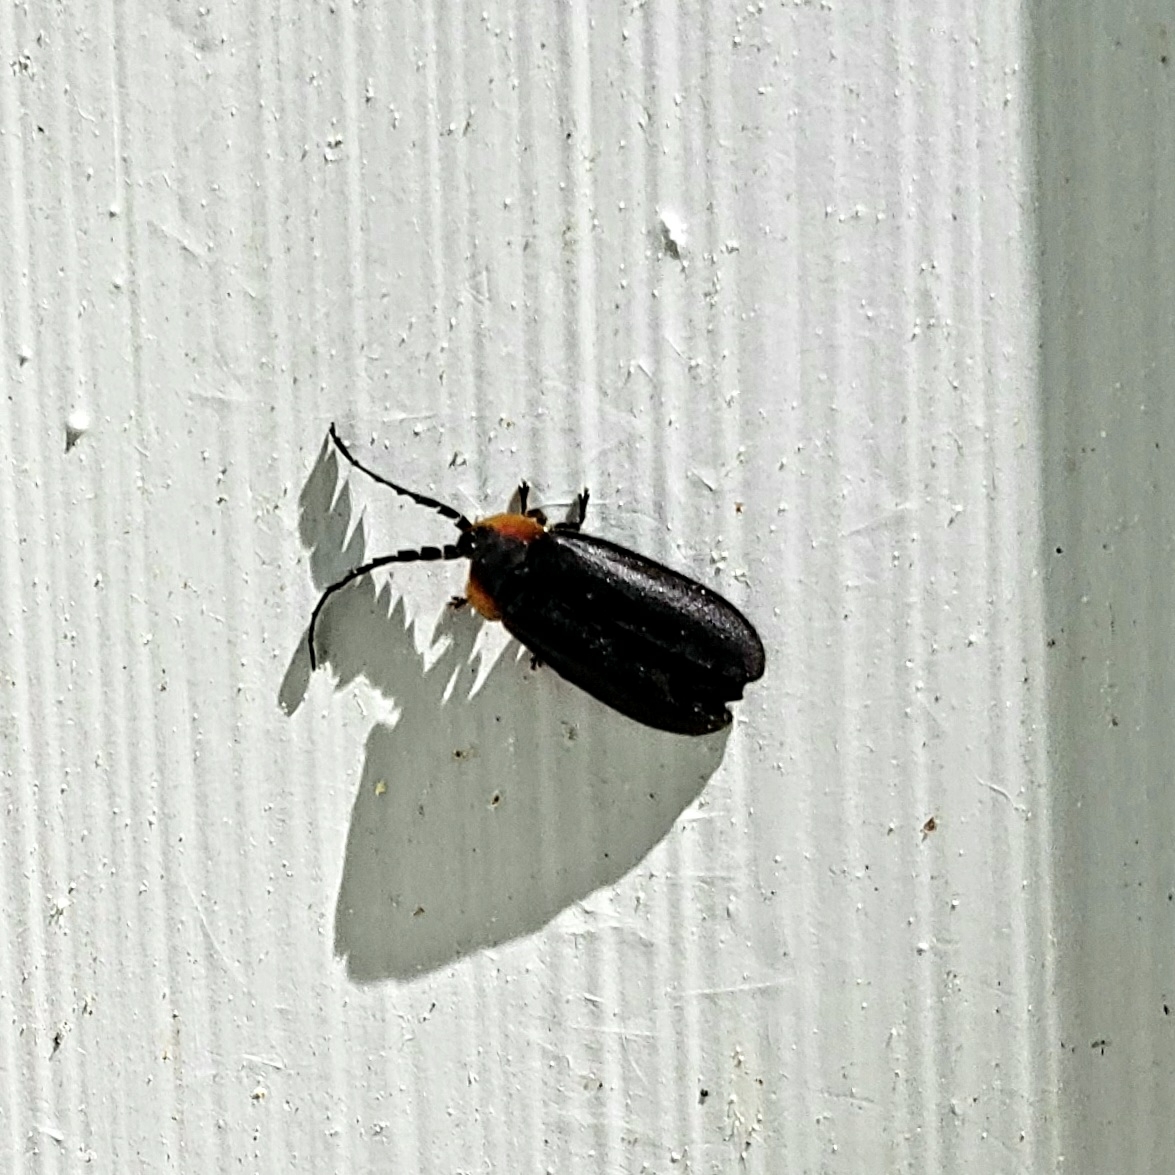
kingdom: Animalia
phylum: Arthropoda
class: Insecta
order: Coleoptera
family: Lampyridae
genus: Lucidota
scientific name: Lucidota atra
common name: Black firefly
